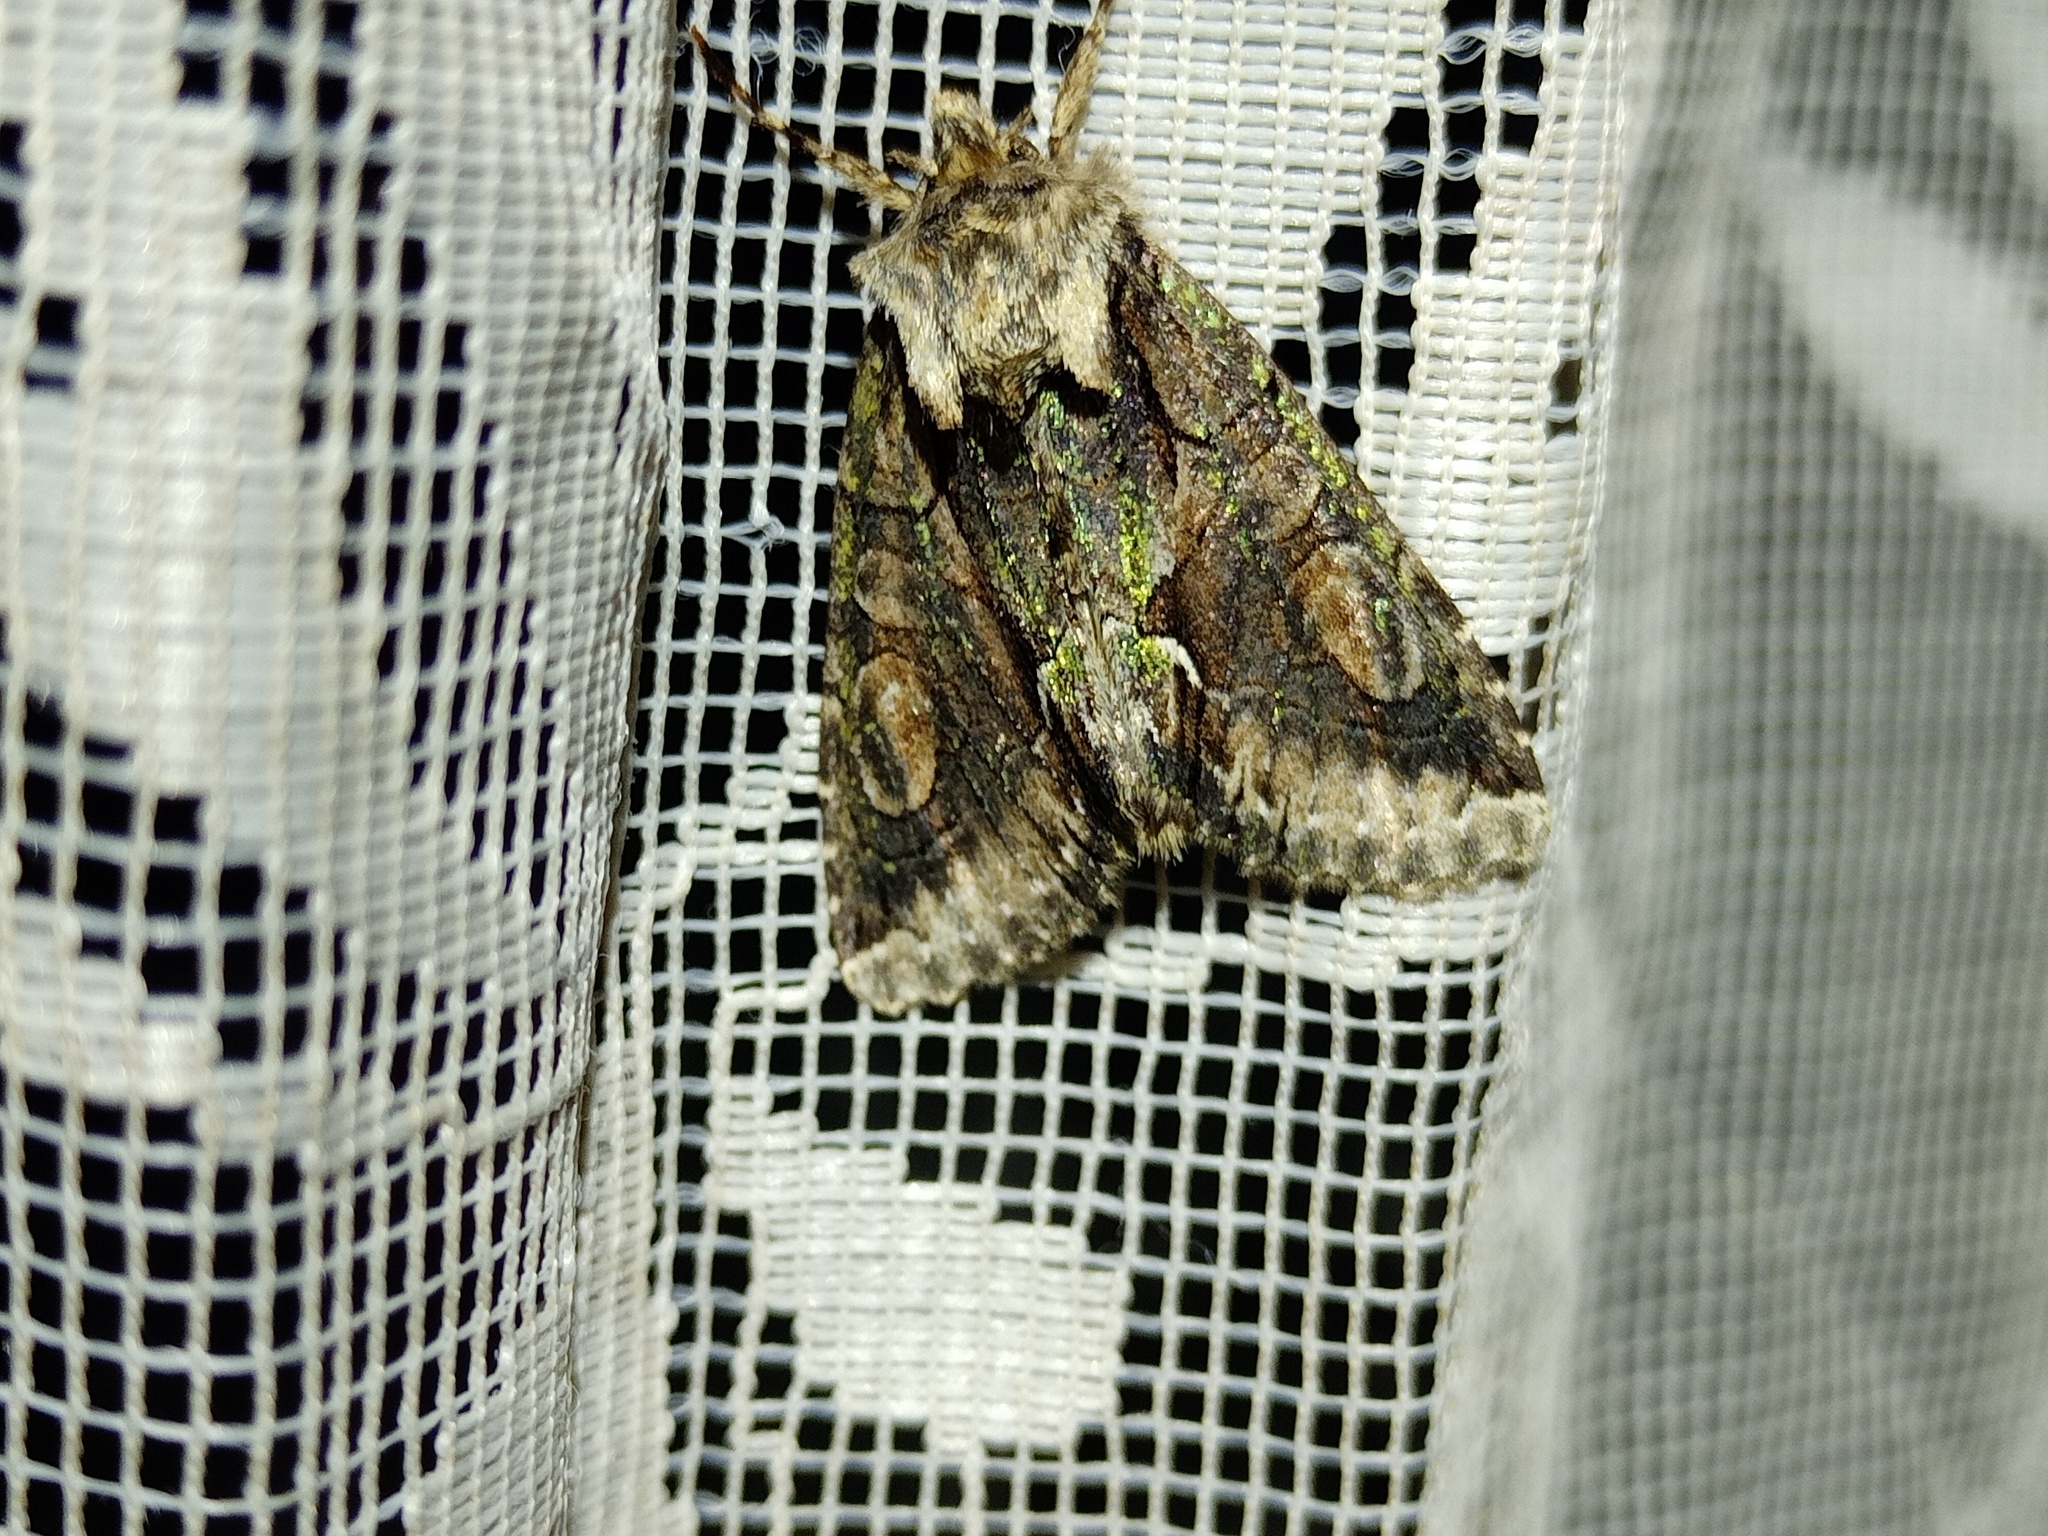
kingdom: Animalia
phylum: Arthropoda
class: Insecta
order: Lepidoptera
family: Noctuidae
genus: Allophyes
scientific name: Allophyes oxyacanthae
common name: Green-brindled crescent
